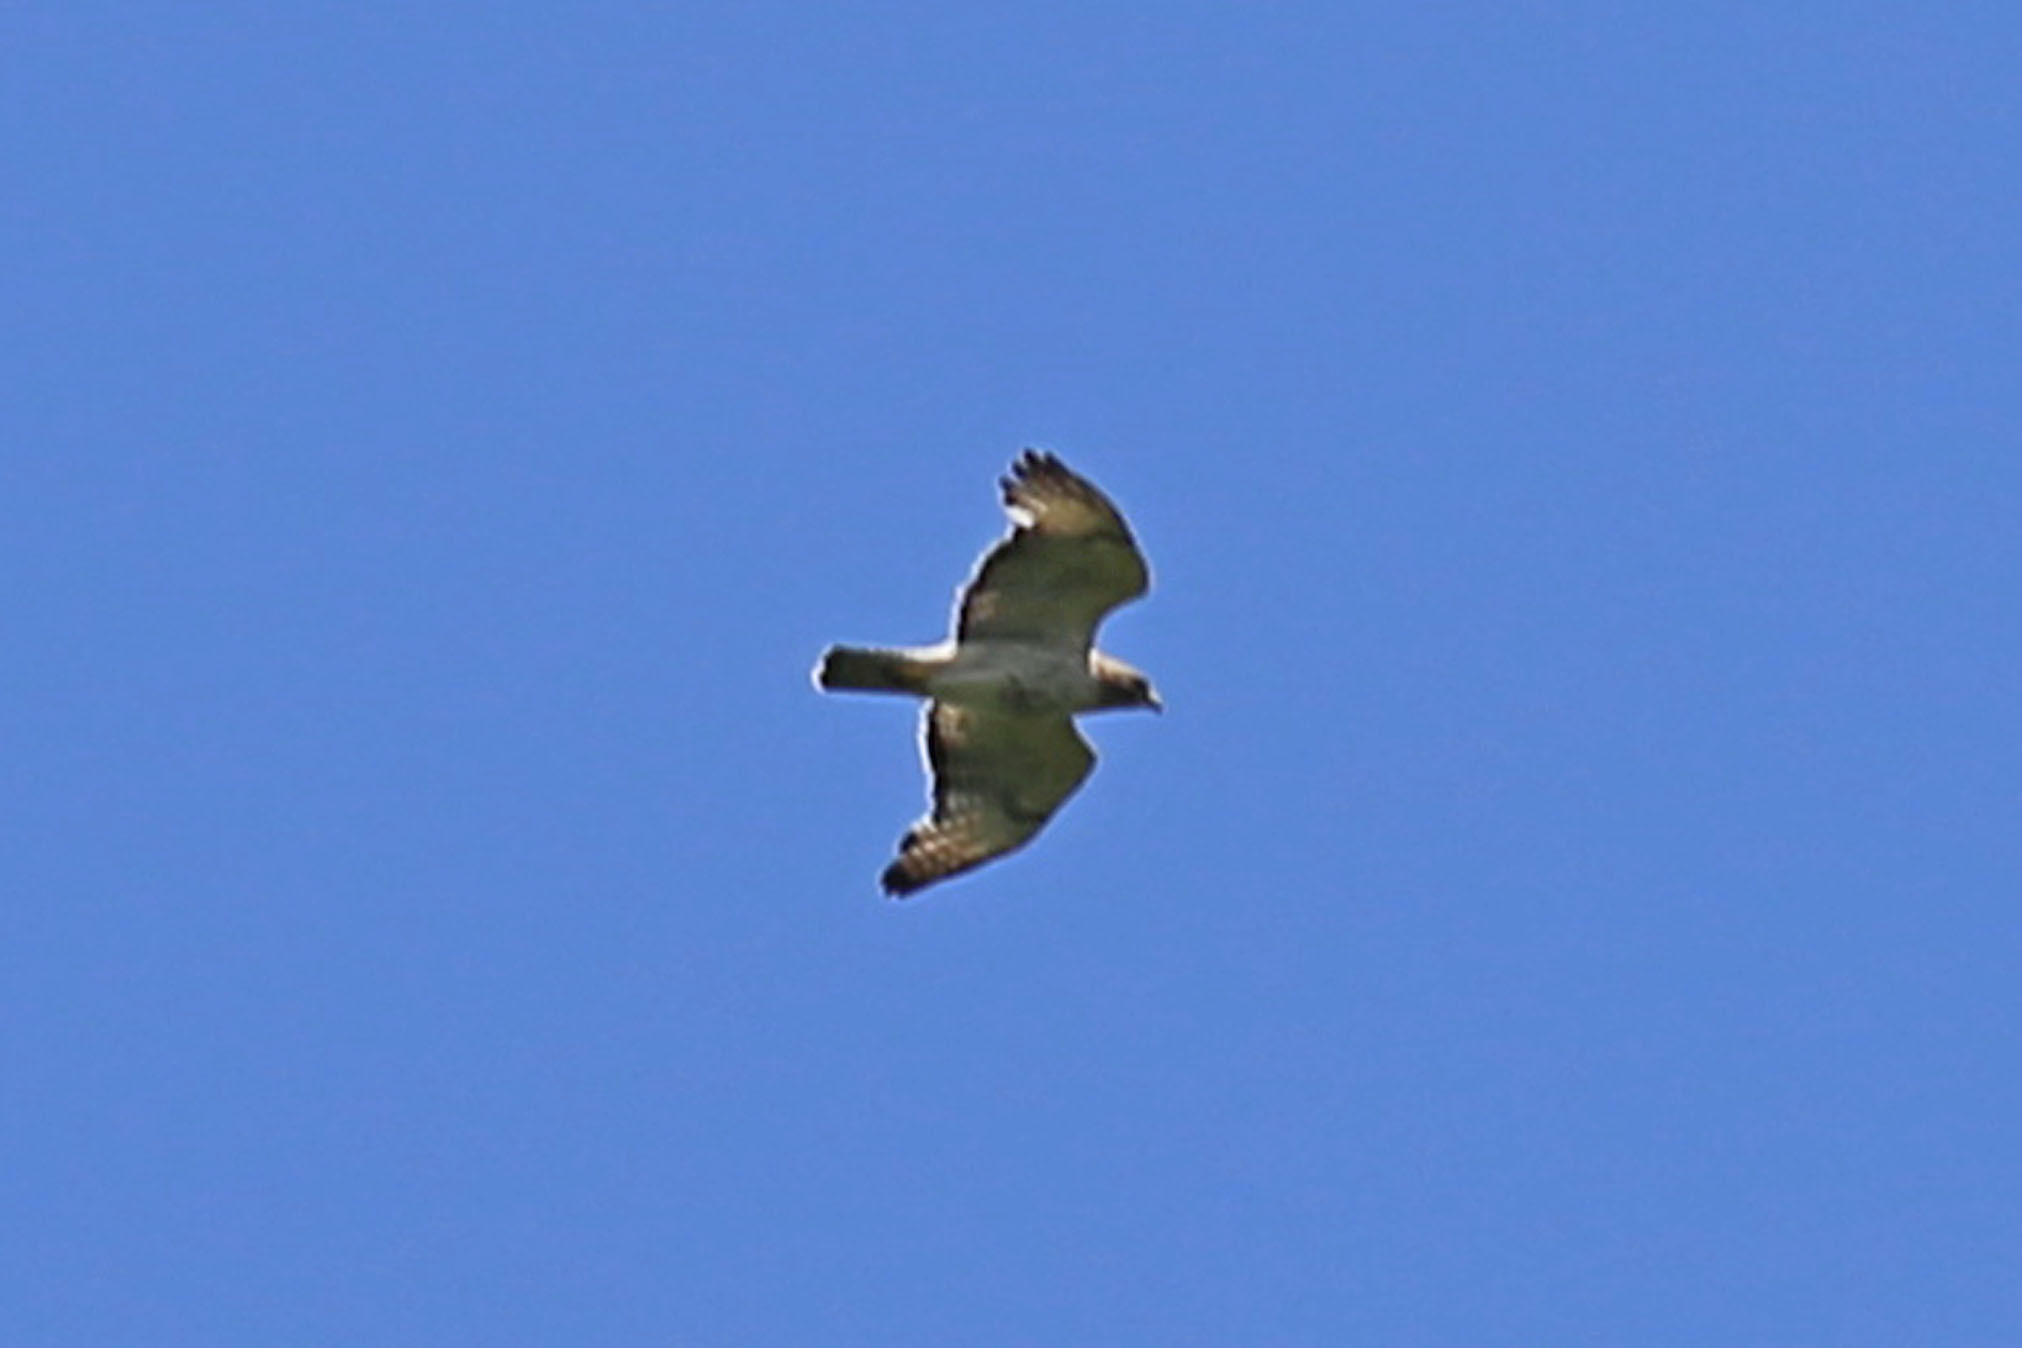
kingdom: Animalia
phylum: Chordata
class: Aves
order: Accipitriformes
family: Accipitridae
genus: Buteo
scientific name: Buteo
